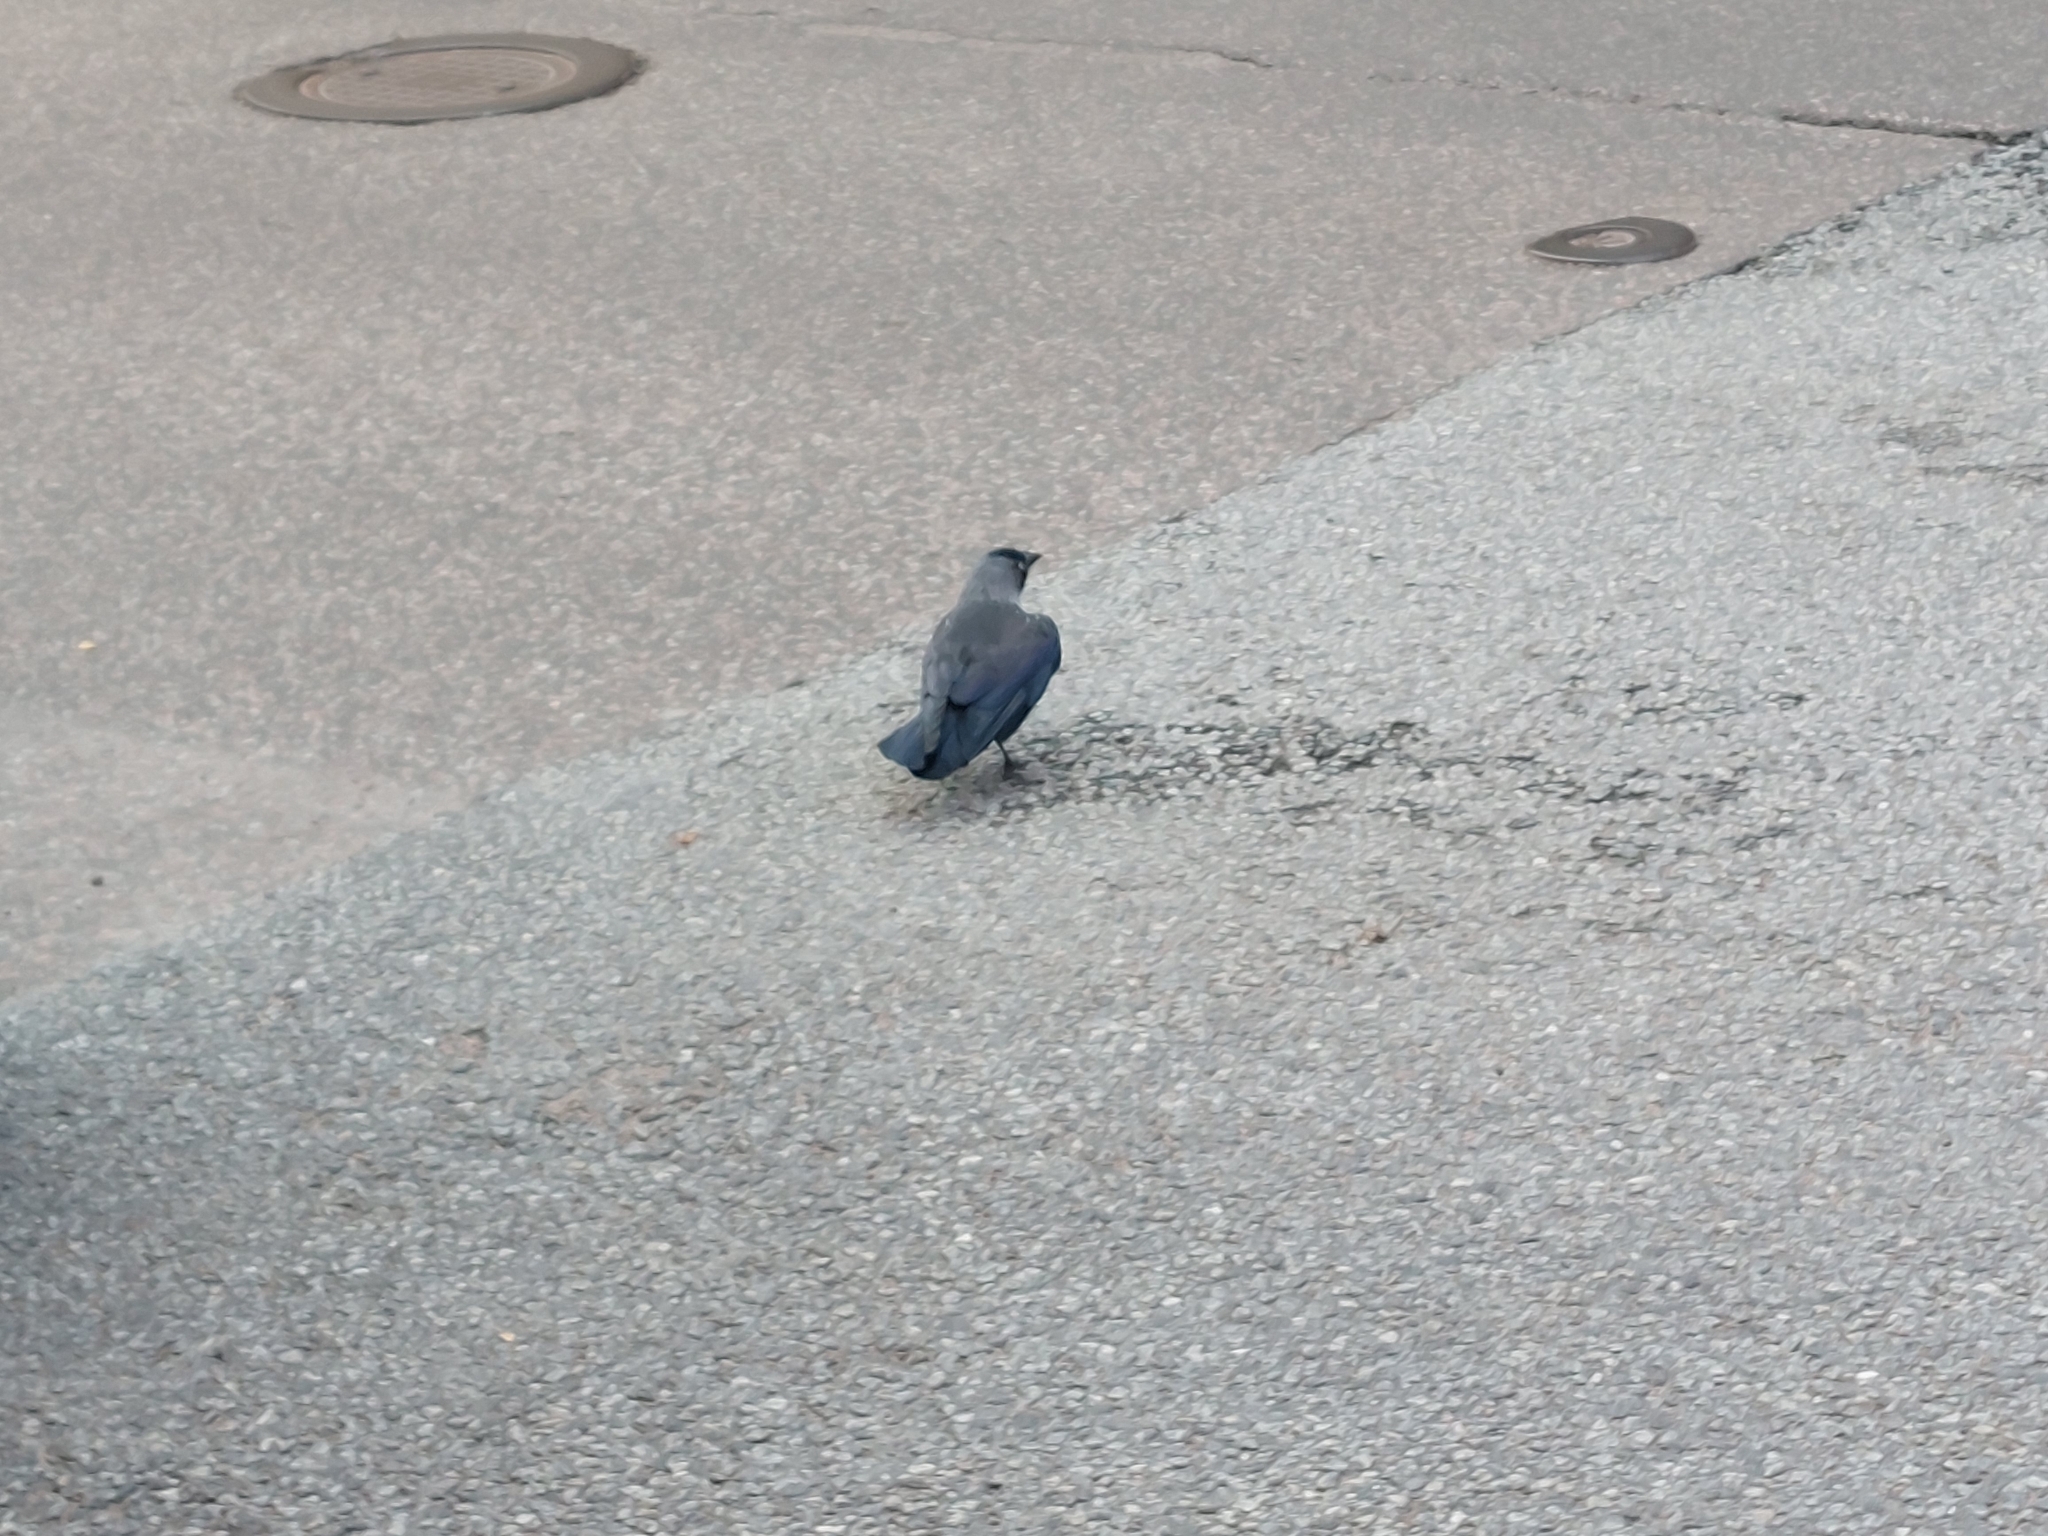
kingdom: Animalia
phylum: Chordata
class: Aves
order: Passeriformes
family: Corvidae
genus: Coloeus
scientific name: Coloeus monedula
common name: Western jackdaw
